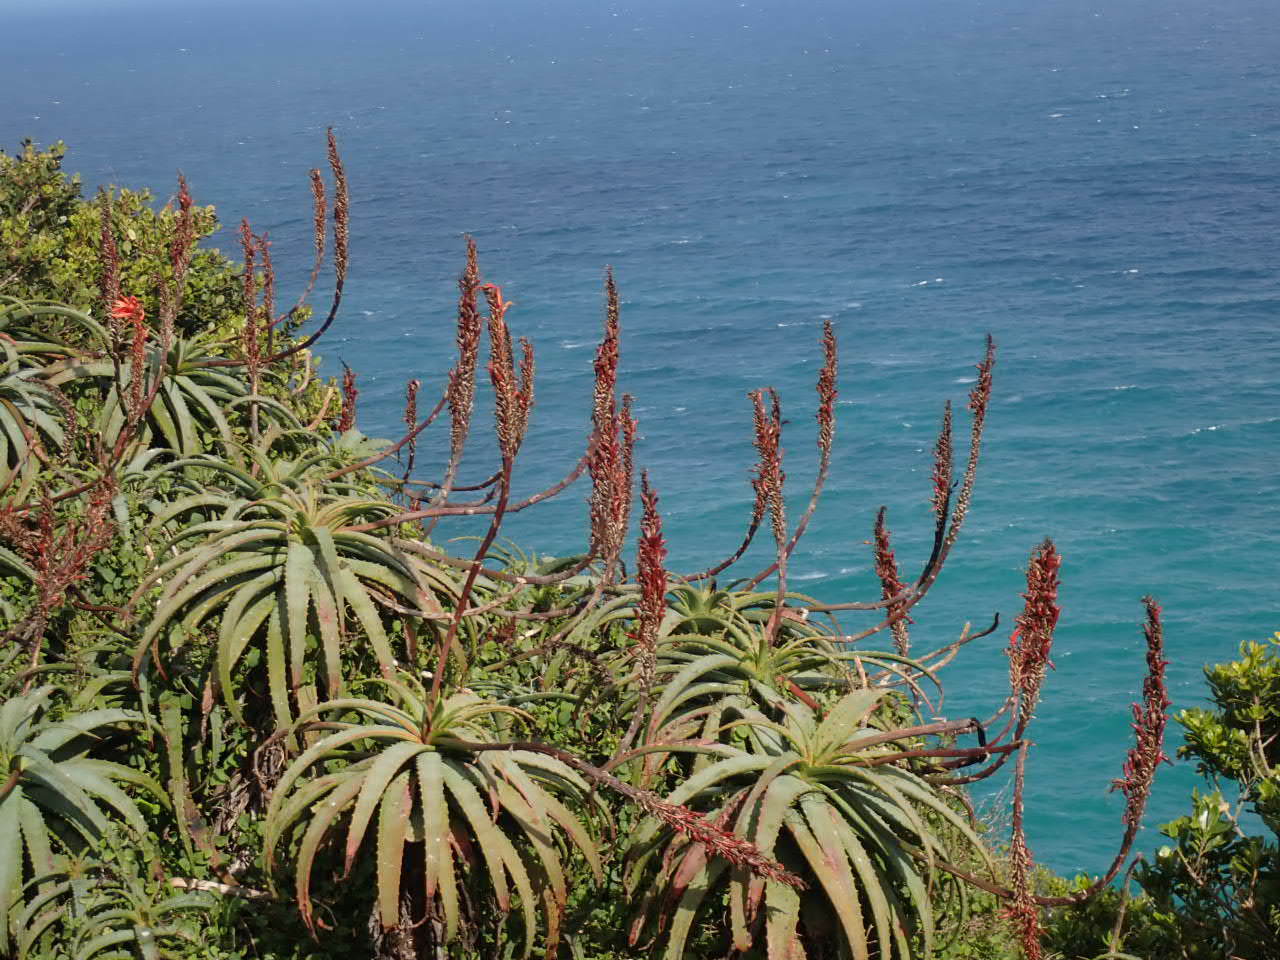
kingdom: Plantae
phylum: Tracheophyta
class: Liliopsida
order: Asparagales
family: Asphodelaceae
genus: Aloe
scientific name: Aloe arborescens
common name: Candelabra aloe
